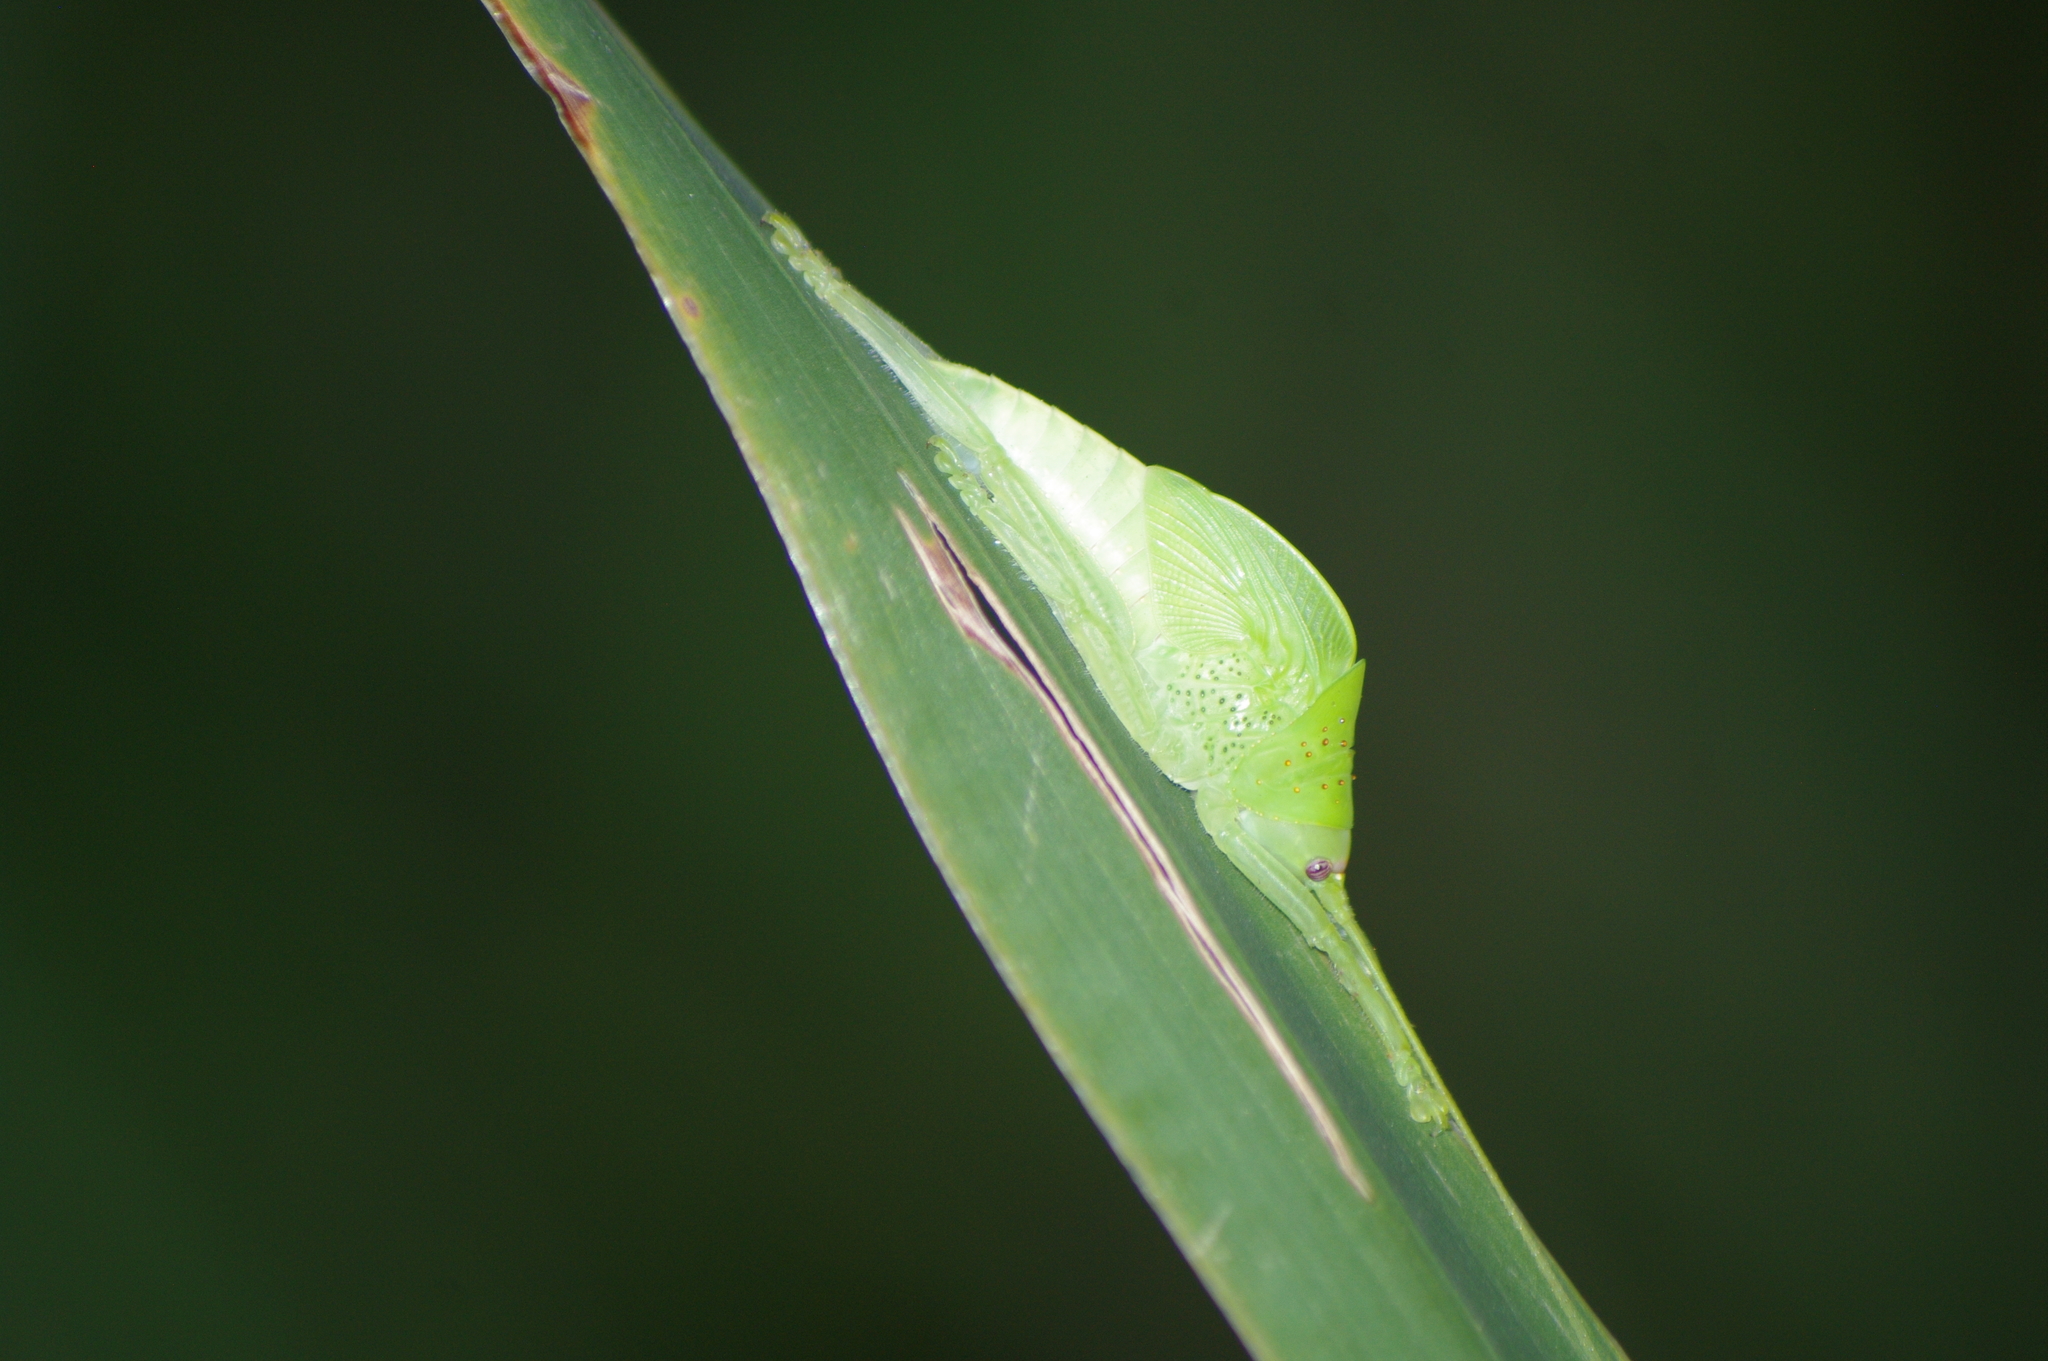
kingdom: Animalia
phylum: Arthropoda
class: Insecta
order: Orthoptera
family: Tettigoniidae
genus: Zabalius
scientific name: Zabalius ophthalmicus
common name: Blue-legged sylvan katydid
